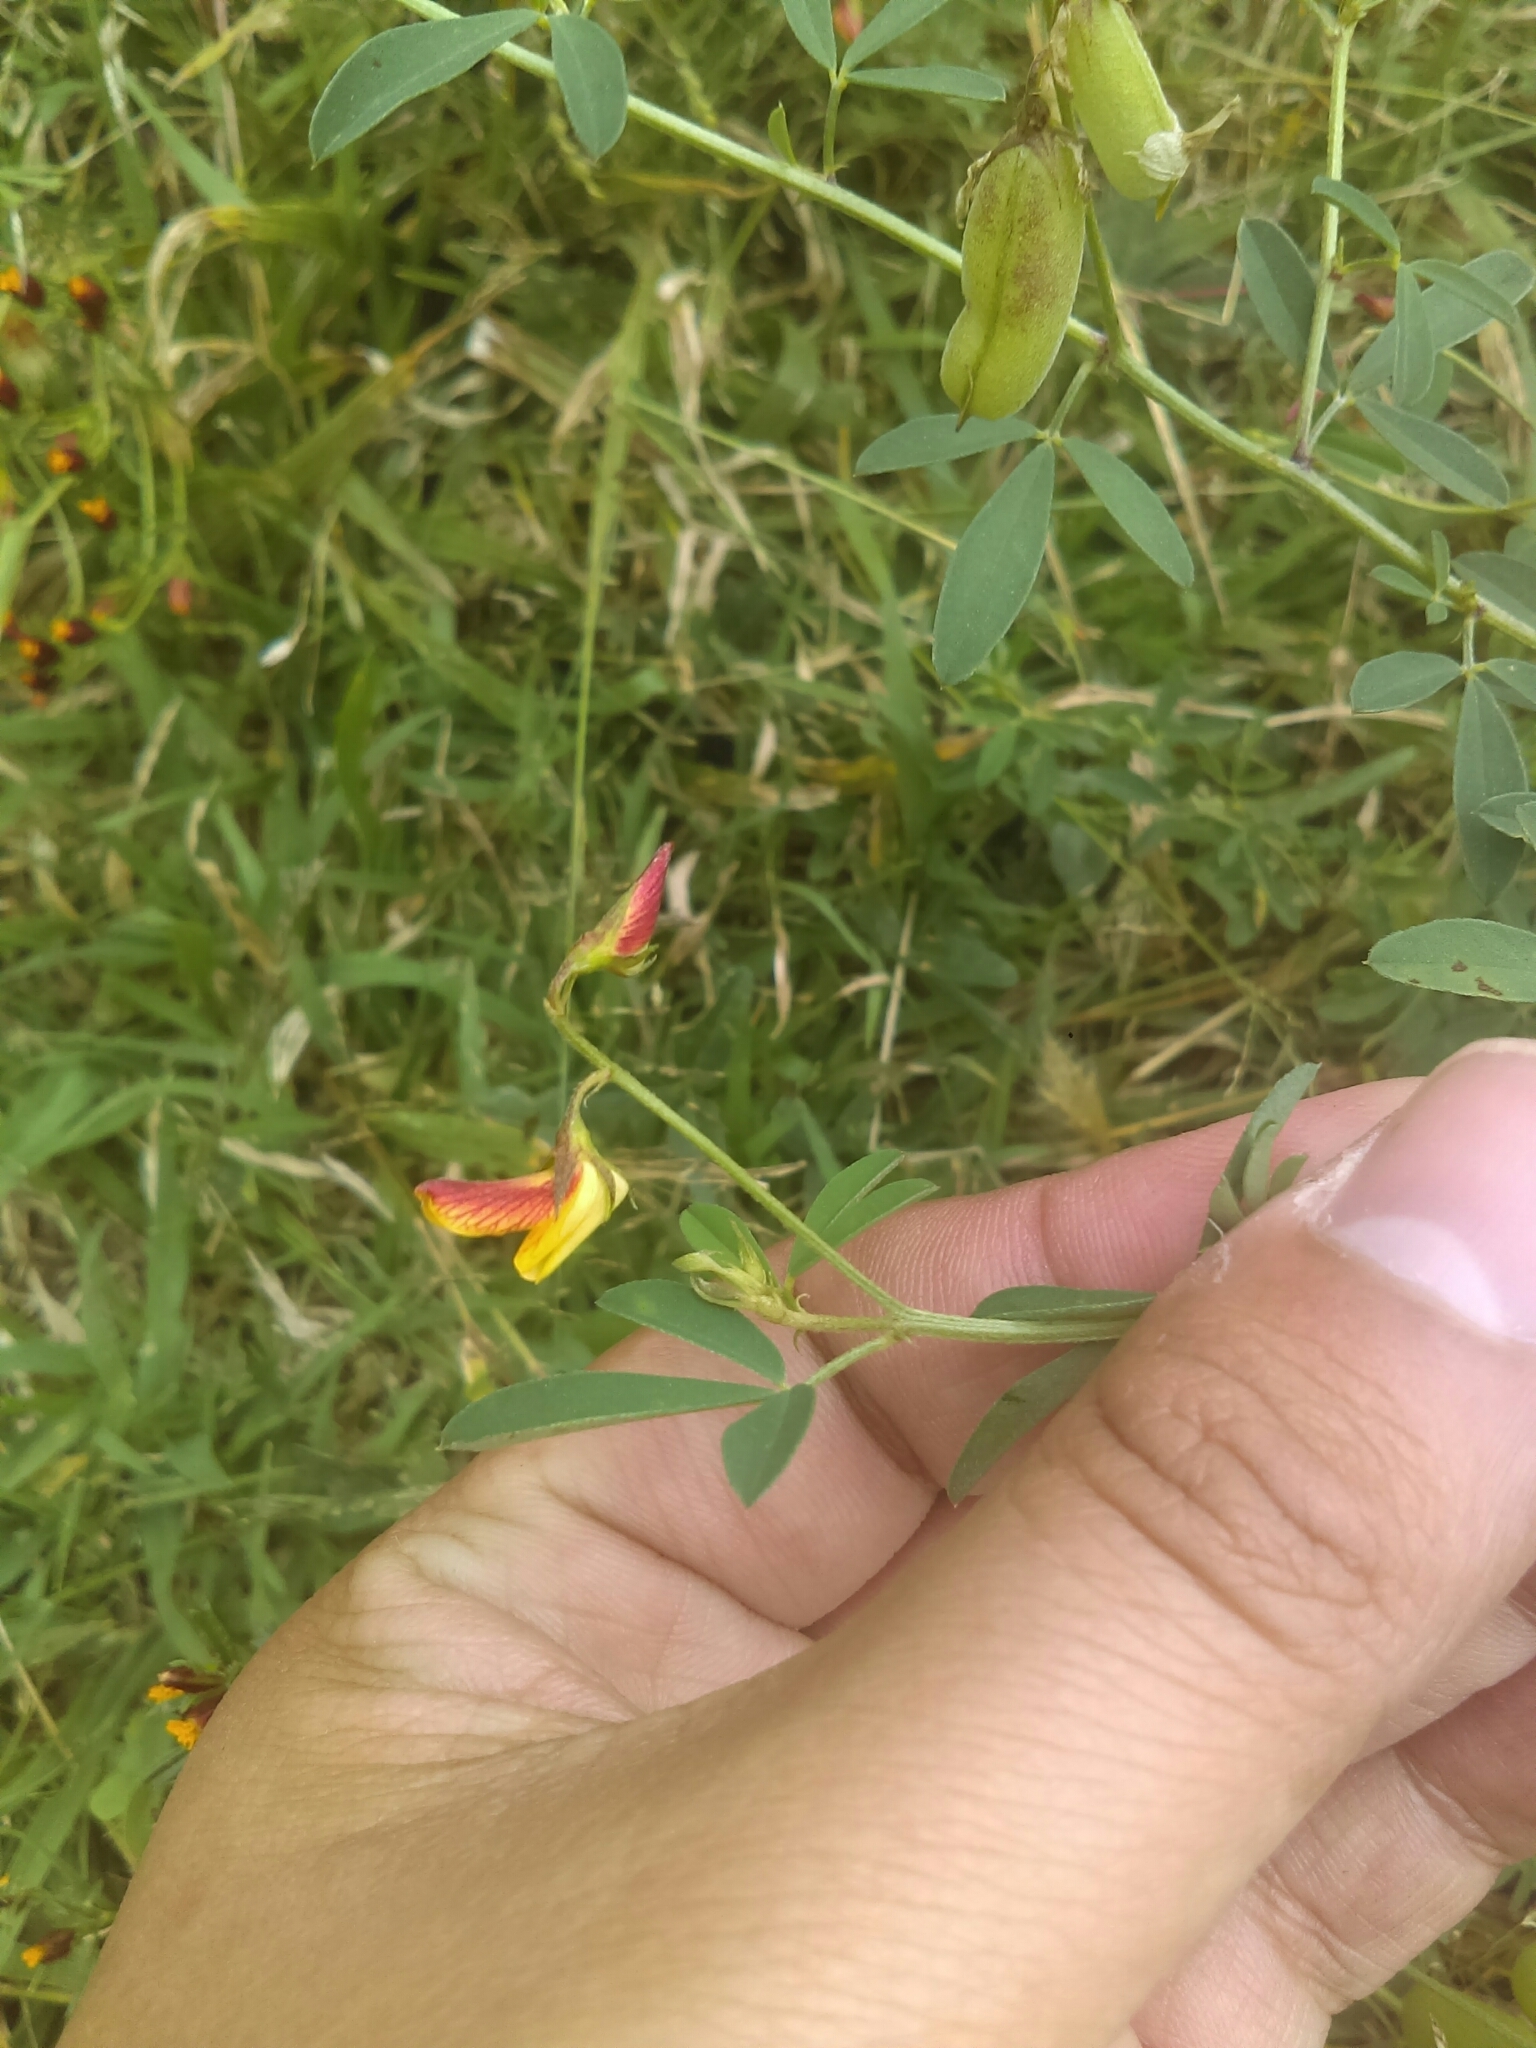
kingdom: Plantae
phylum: Tracheophyta
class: Magnoliopsida
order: Fabales
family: Fabaceae
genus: Crotalaria
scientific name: Crotalaria pumila
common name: Low rattlebox
